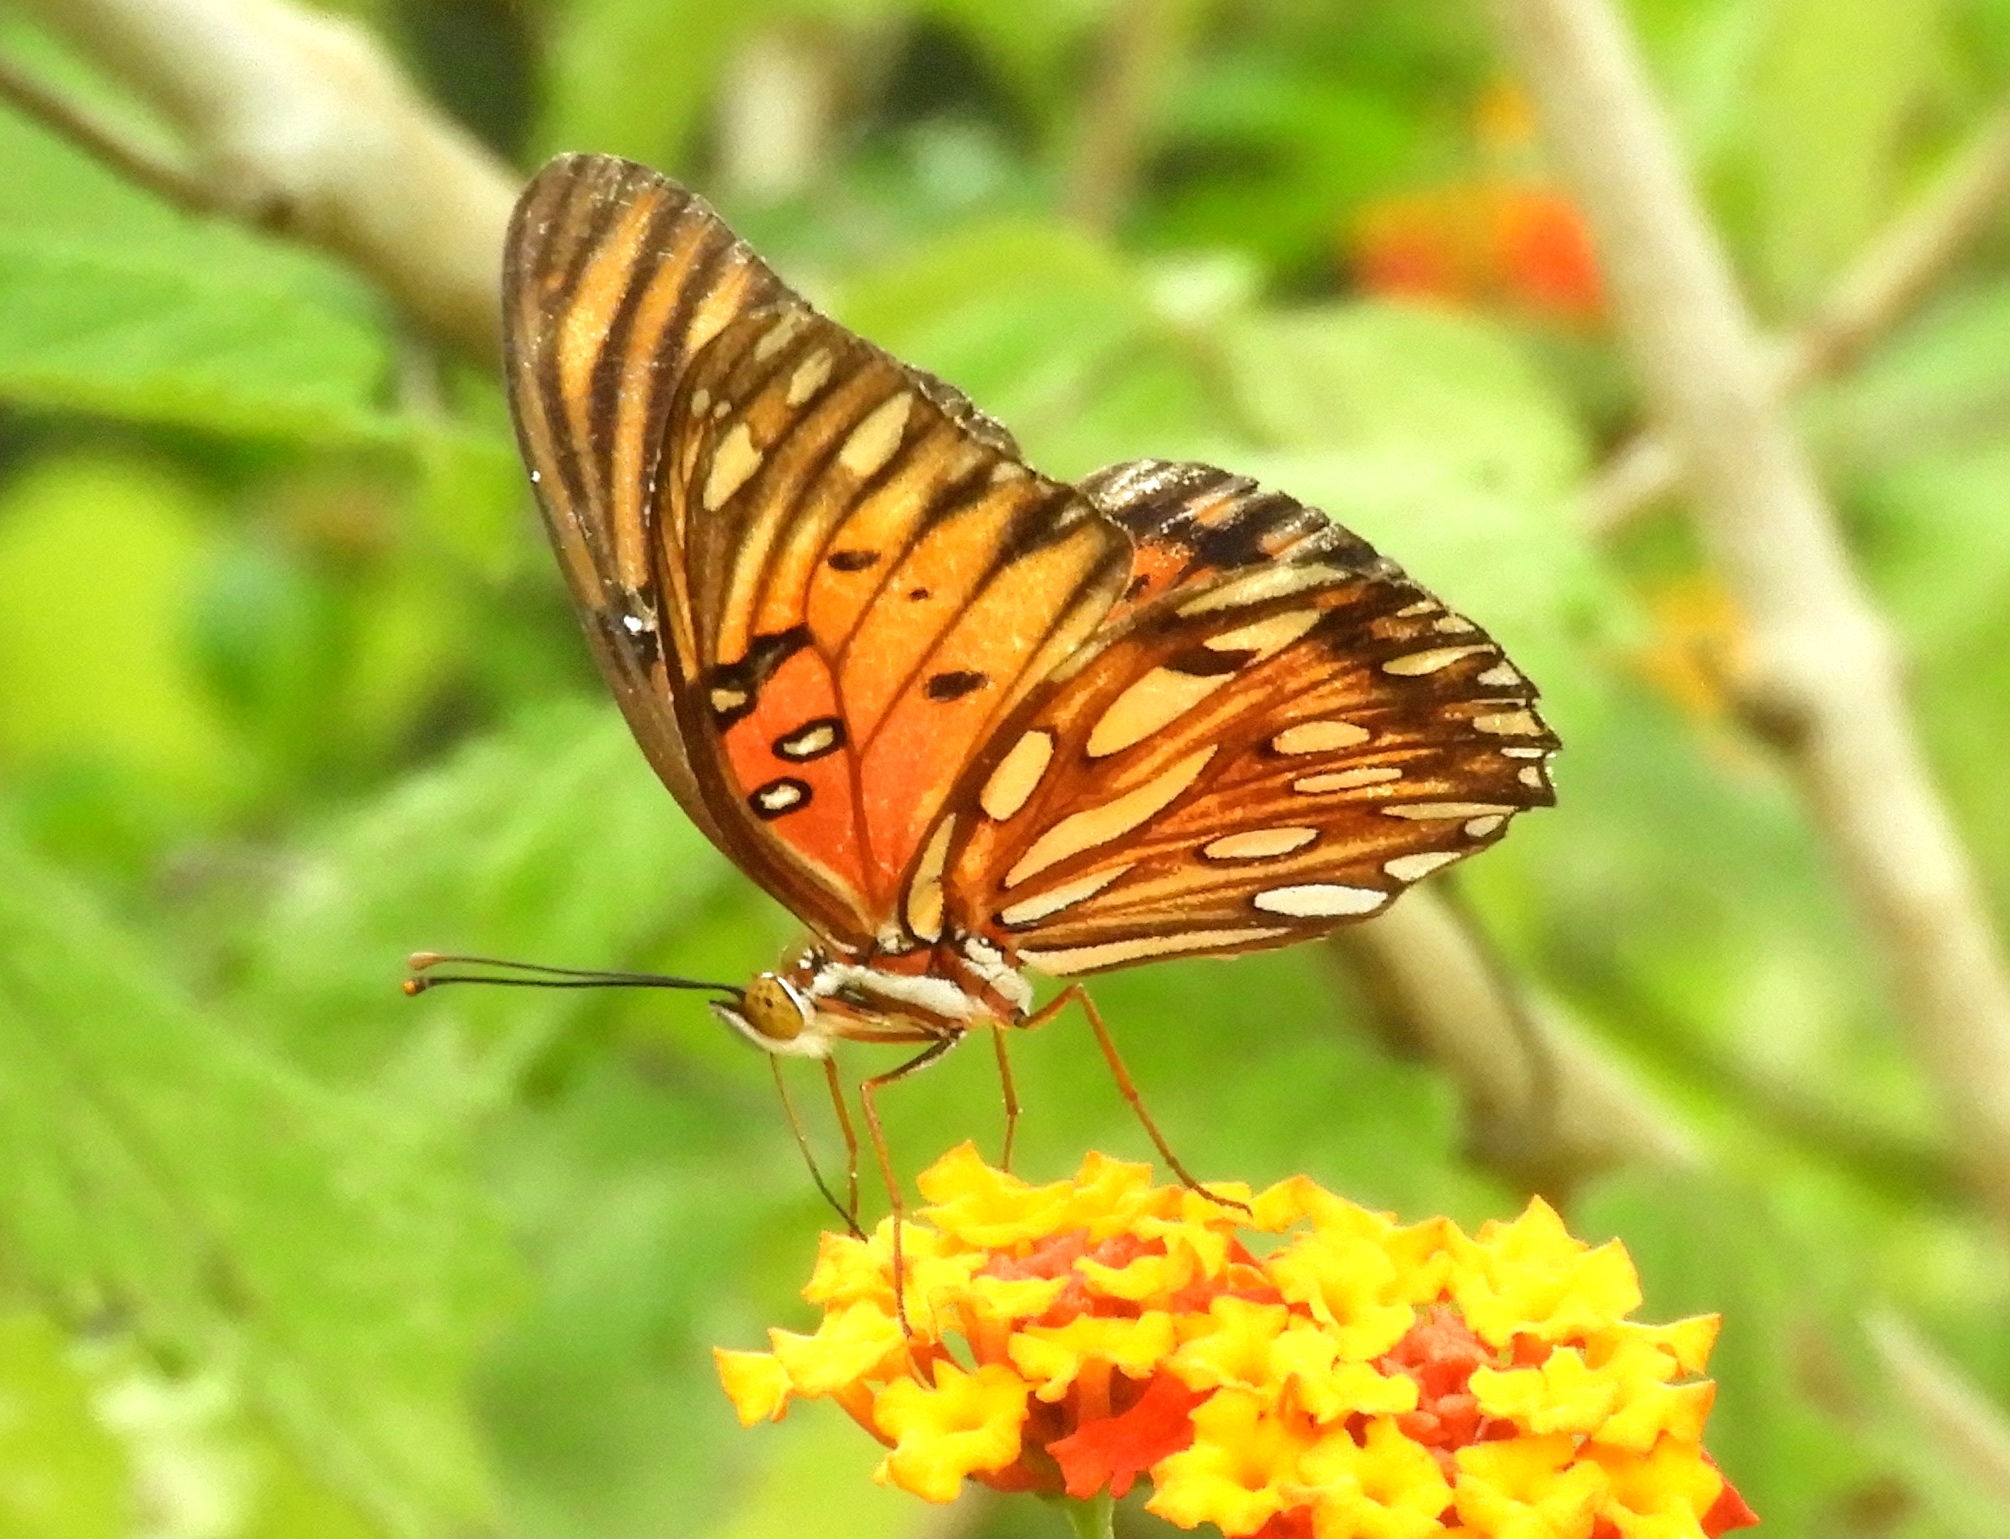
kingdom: Animalia
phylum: Arthropoda
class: Insecta
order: Lepidoptera
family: Nymphalidae
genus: Dione
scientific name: Dione vanillae
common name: Gulf fritillary
